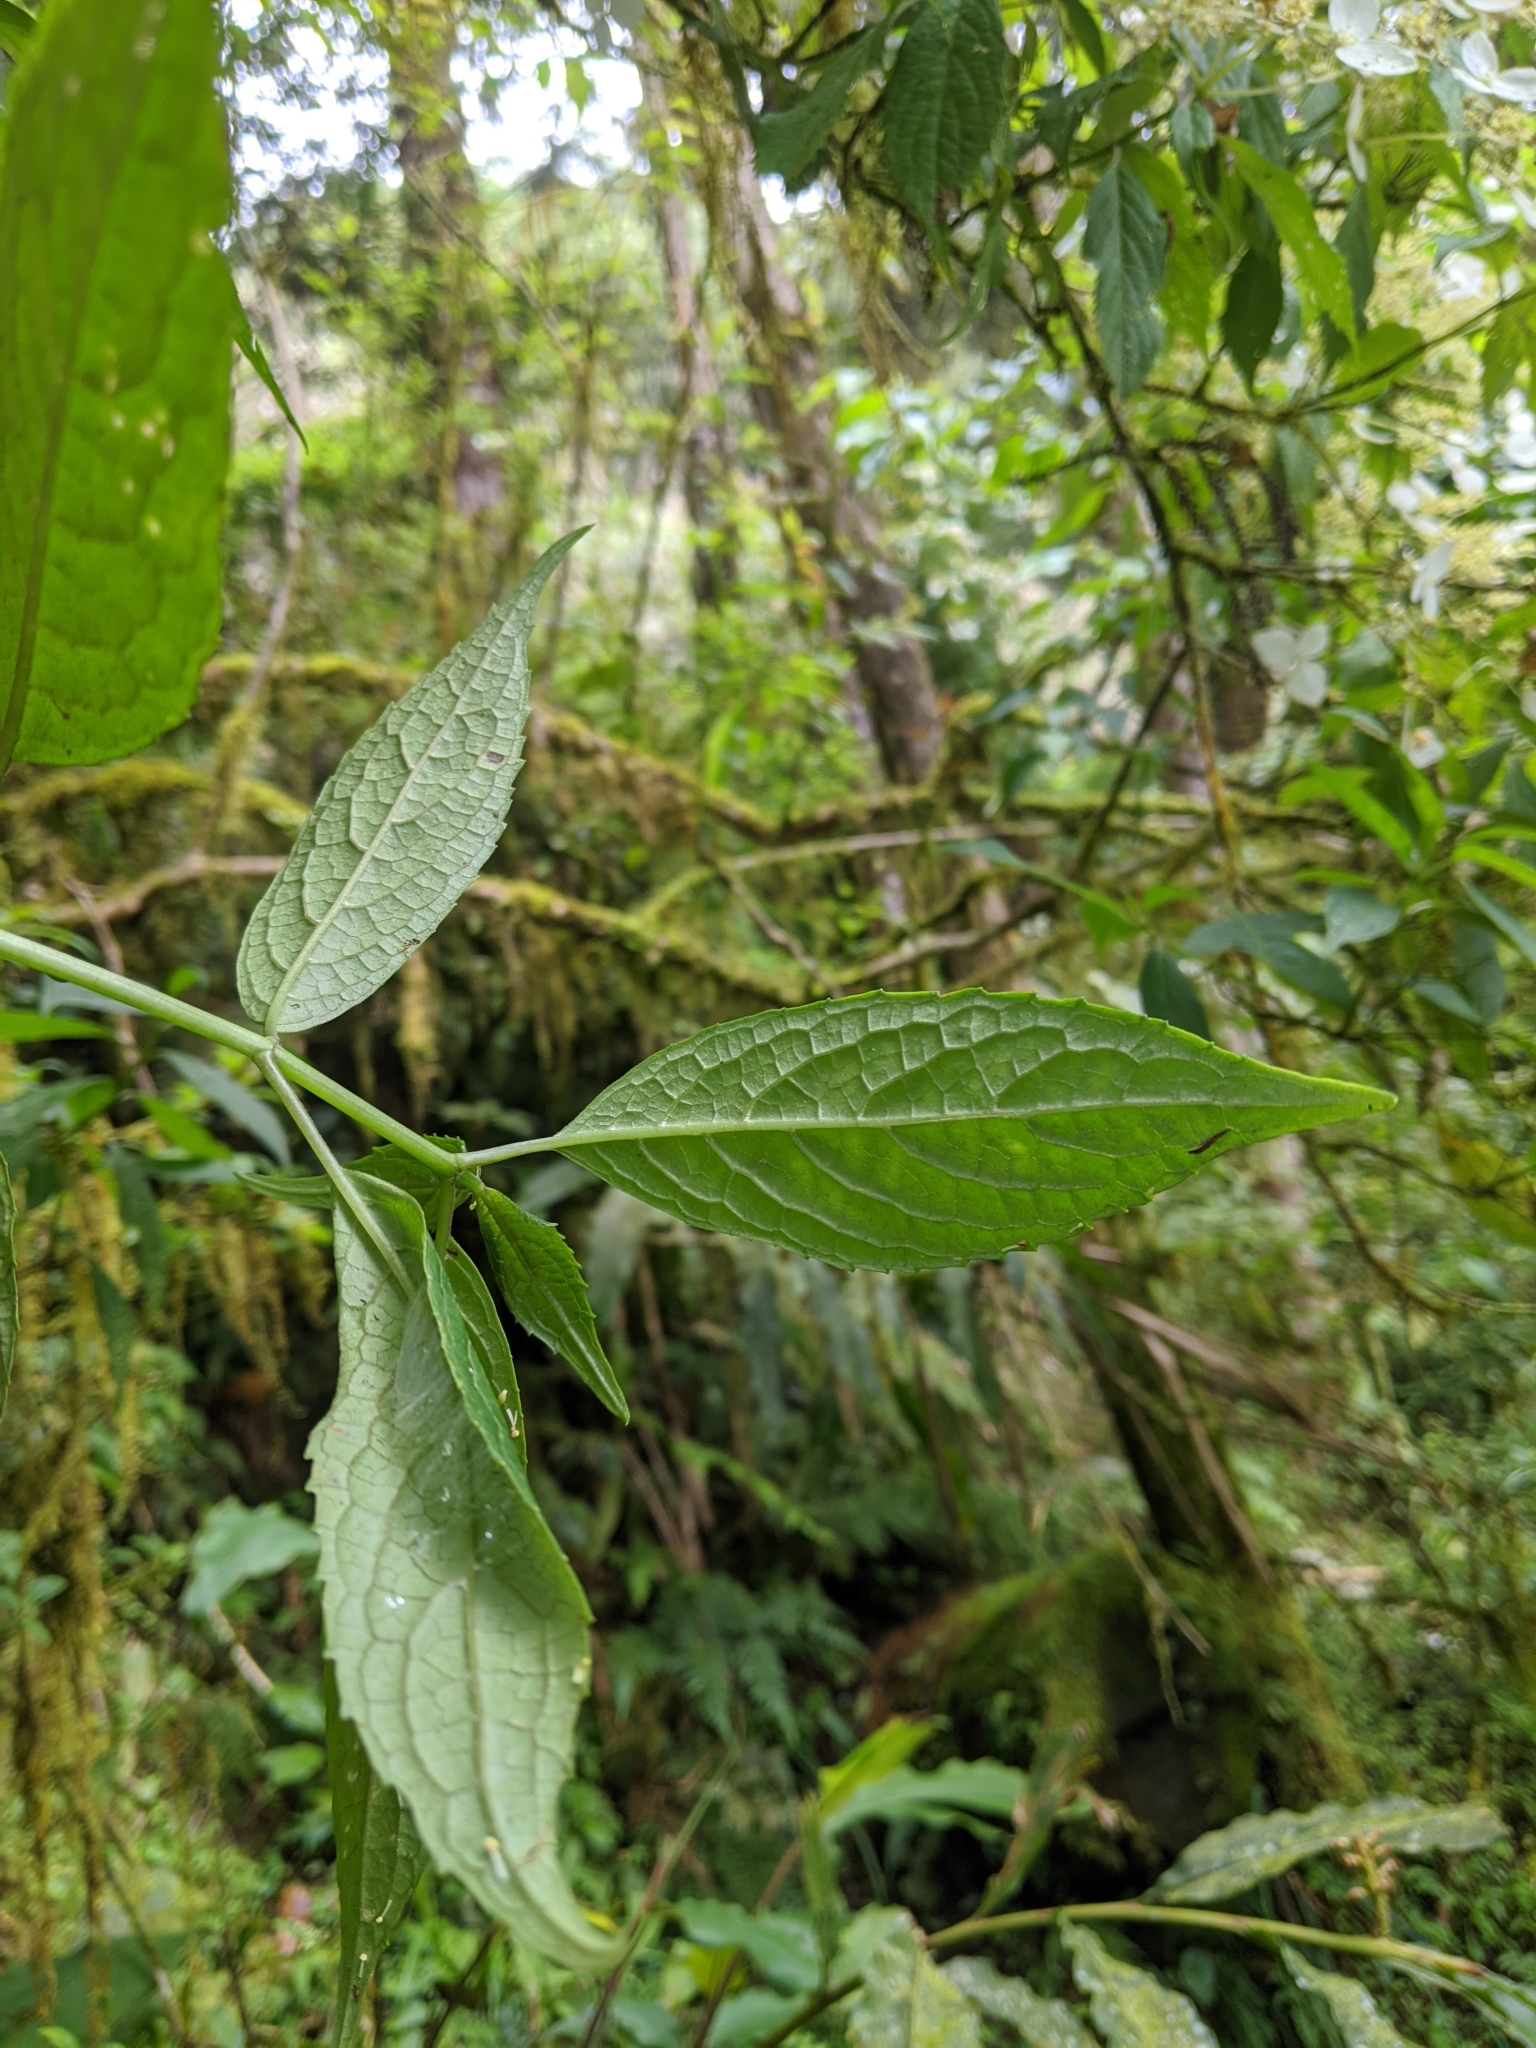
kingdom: Plantae
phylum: Tracheophyta
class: Magnoliopsida
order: Cornales
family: Hydrangeaceae
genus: Hydrangea
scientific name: Hydrangea chinensis
